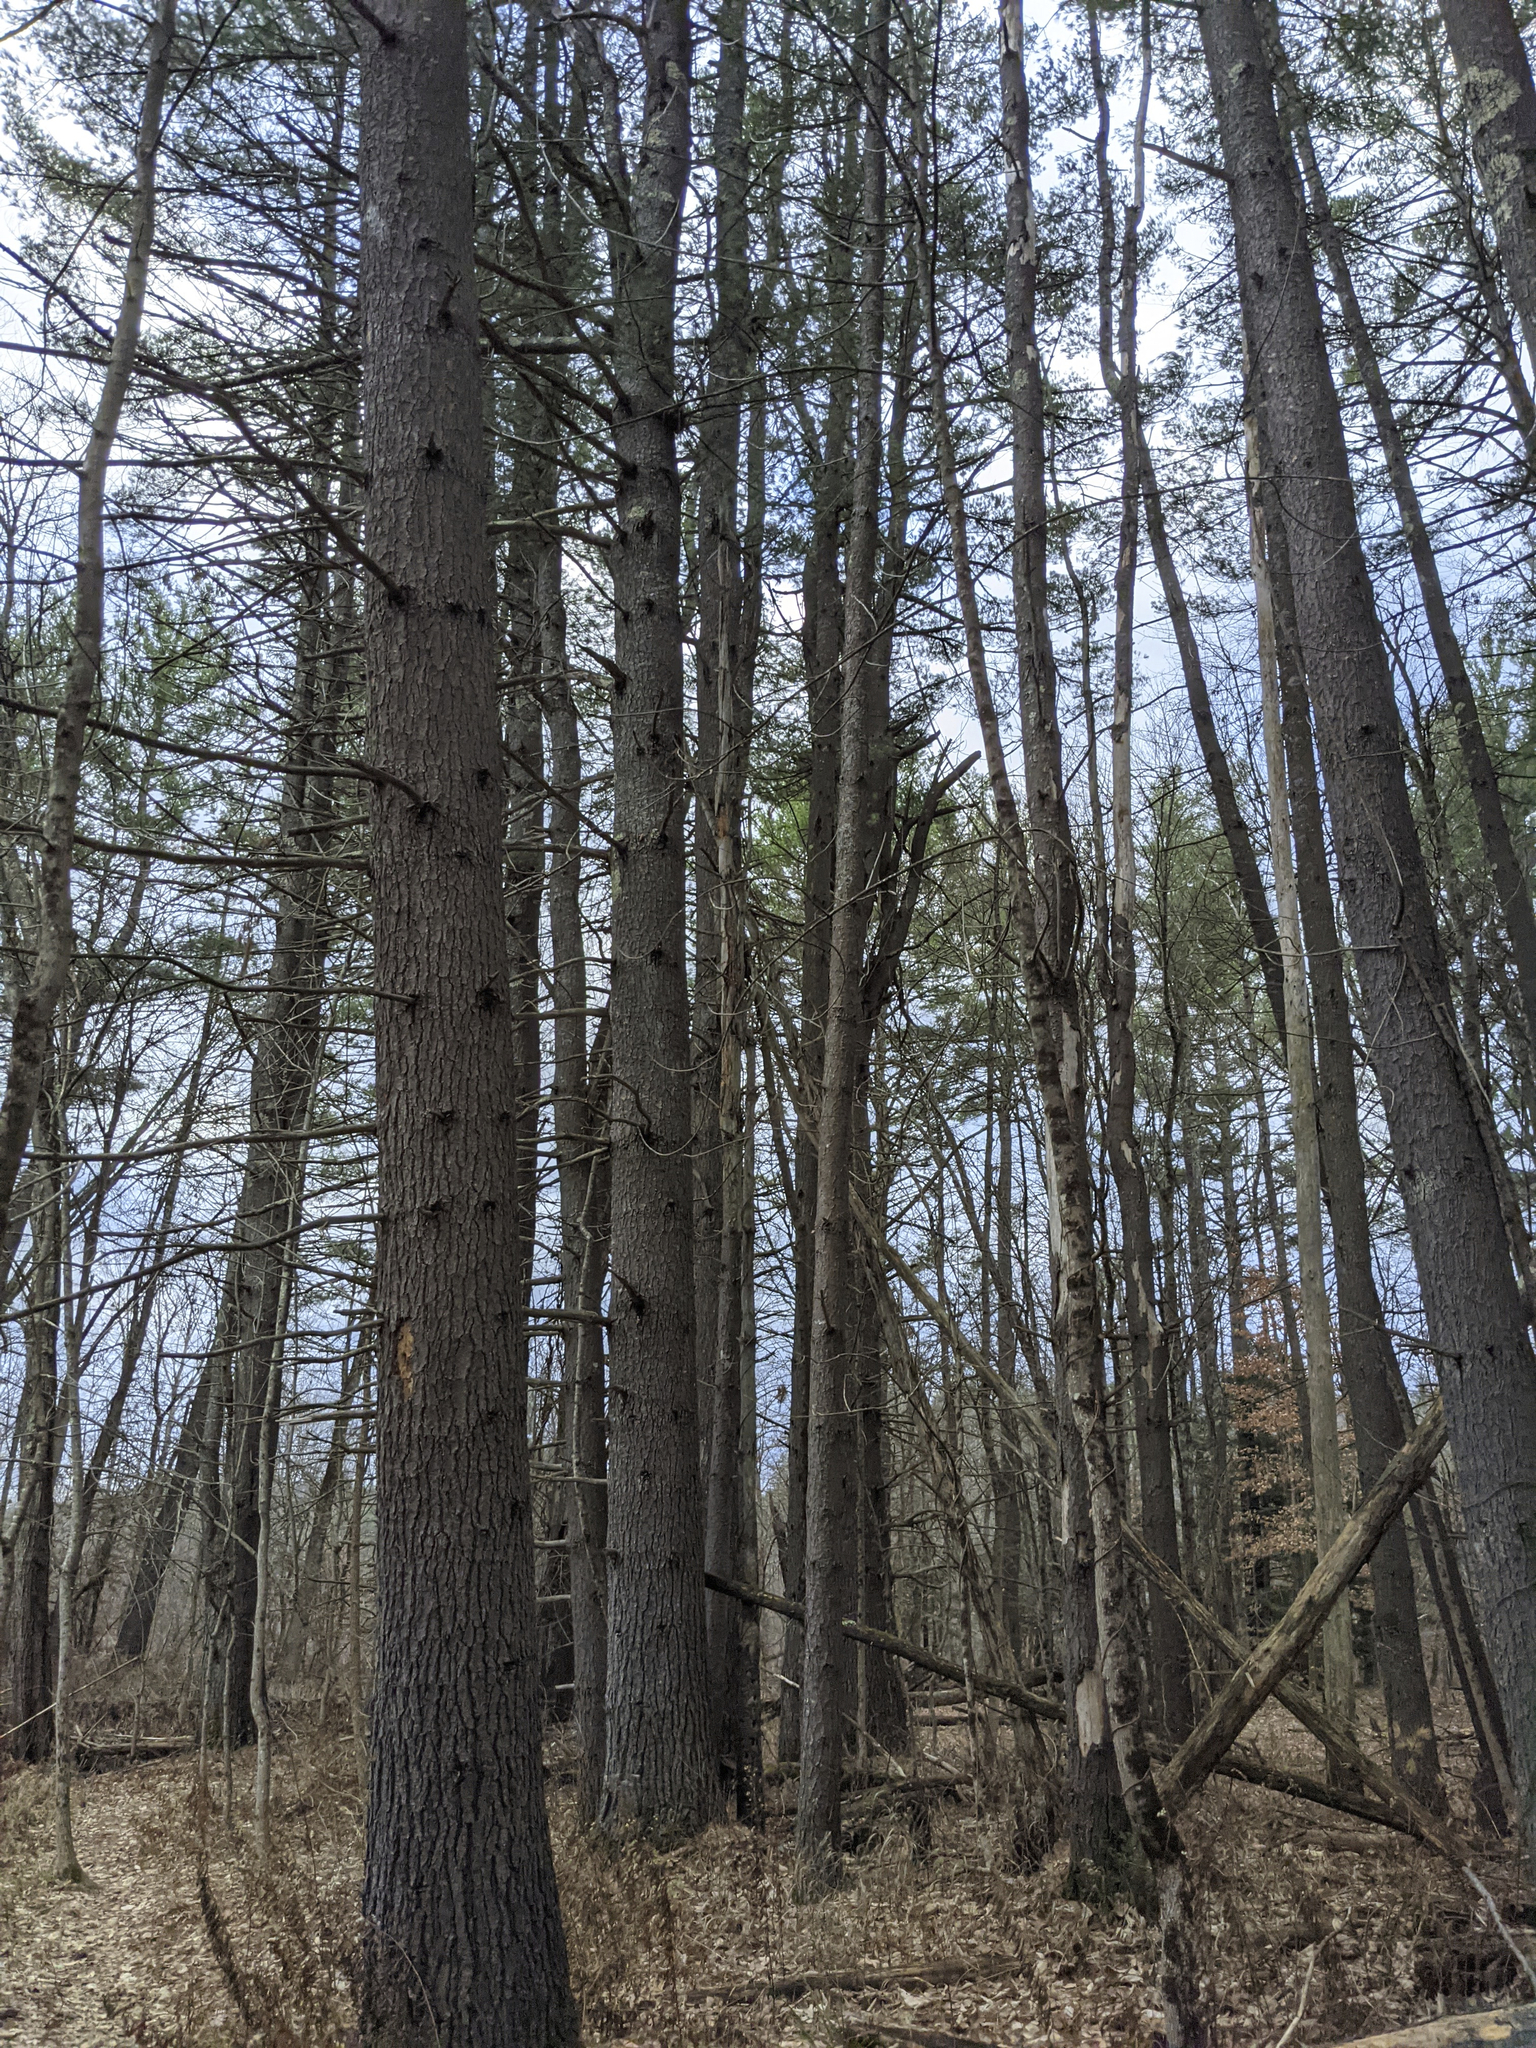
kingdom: Plantae
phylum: Tracheophyta
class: Pinopsida
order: Pinales
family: Pinaceae
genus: Pinus
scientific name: Pinus strobus
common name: Weymouth pine
